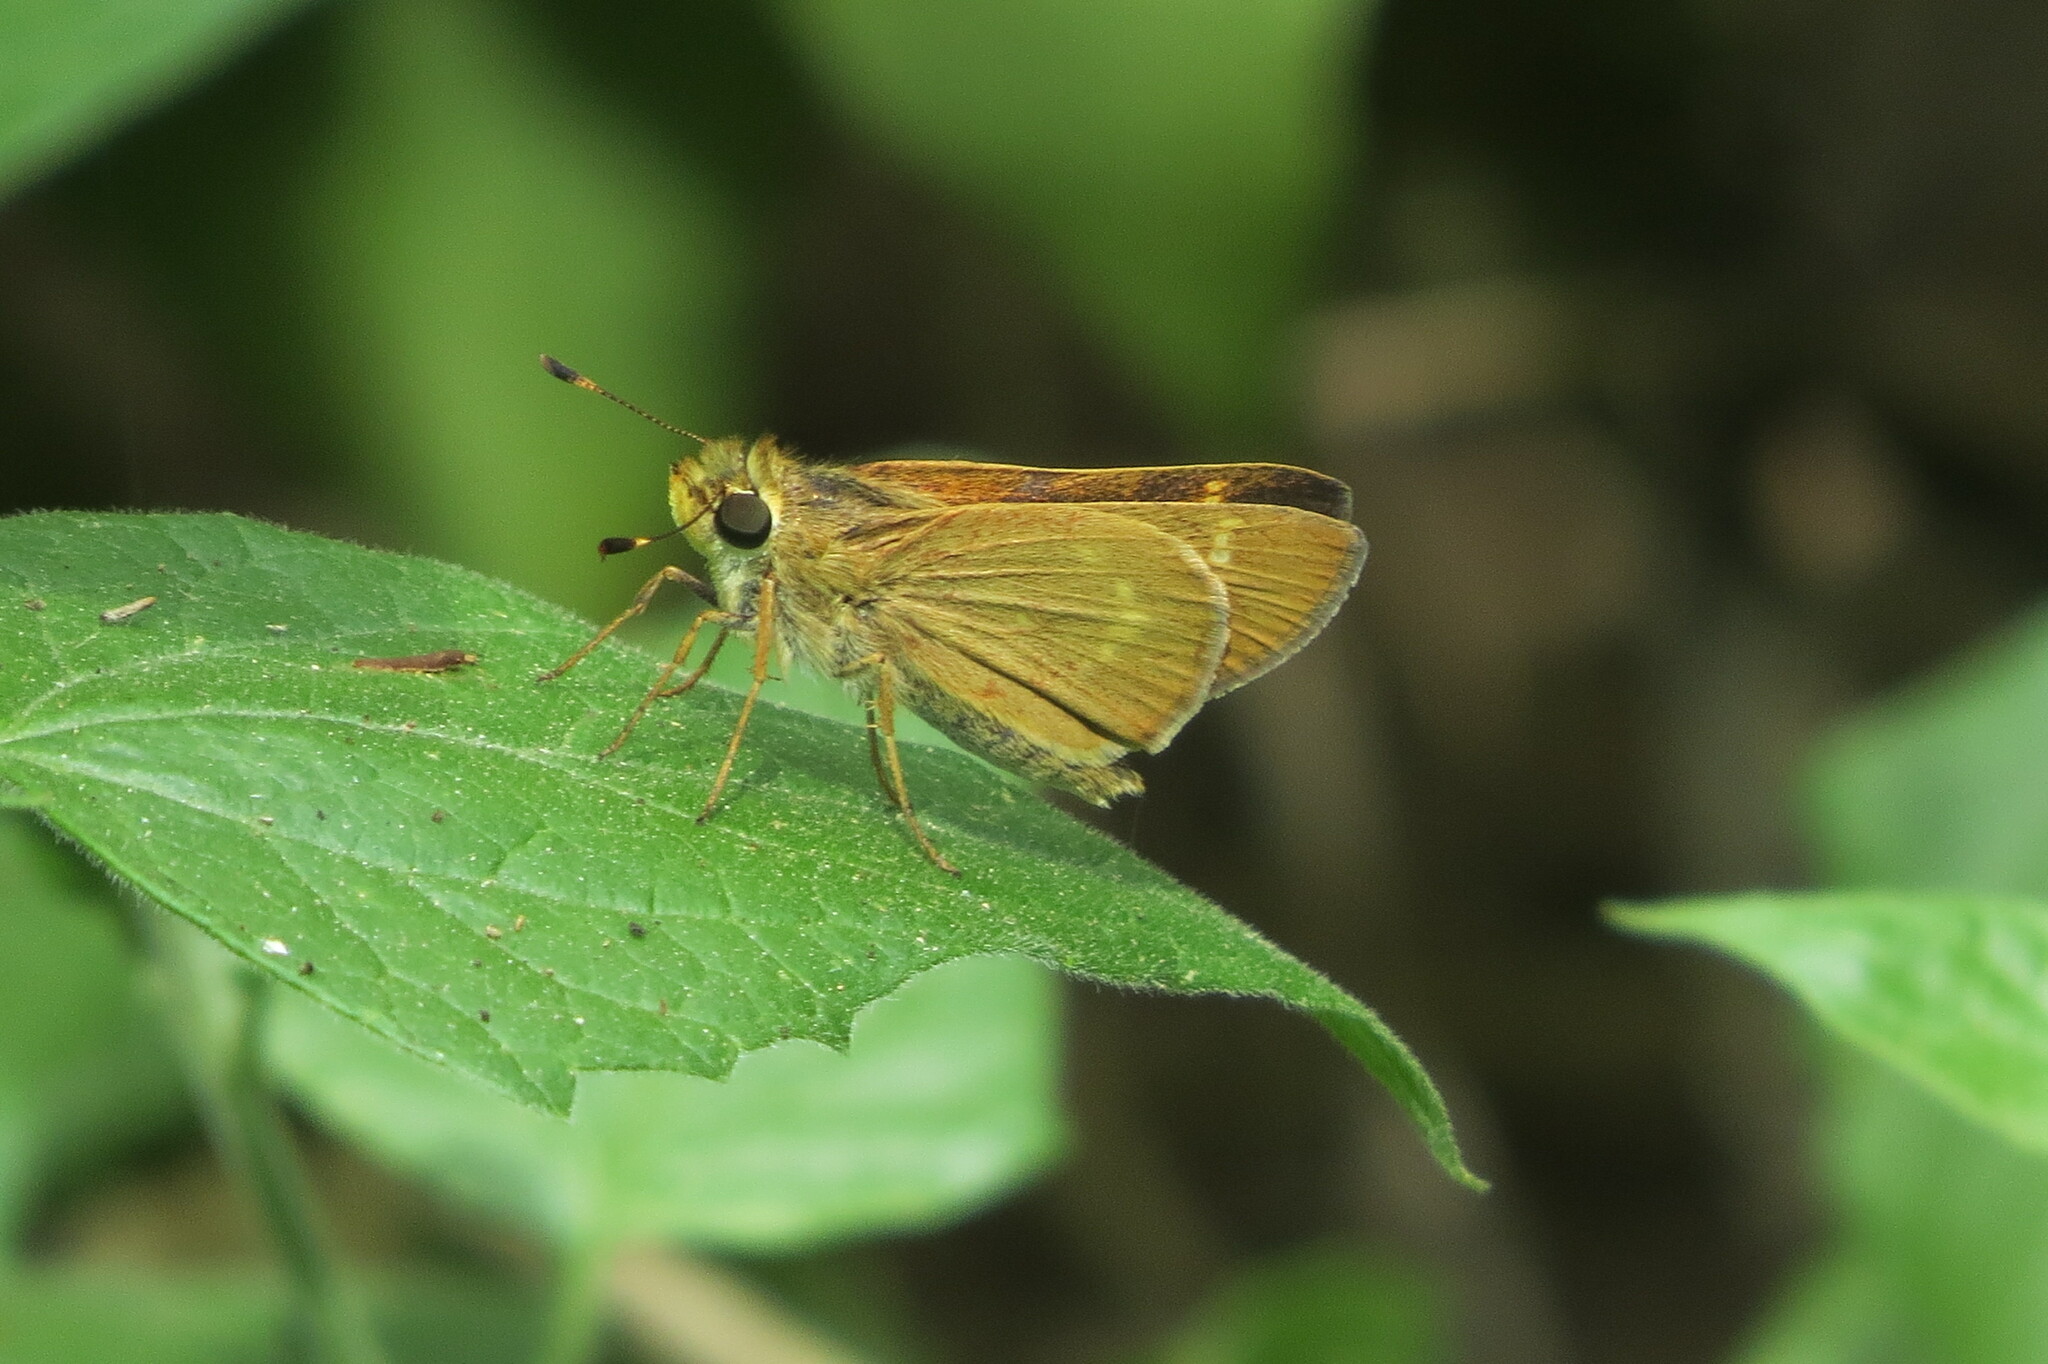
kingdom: Animalia
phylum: Arthropoda
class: Insecta
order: Lepidoptera
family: Hesperiidae
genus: Mellana
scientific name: Mellana eulogius
